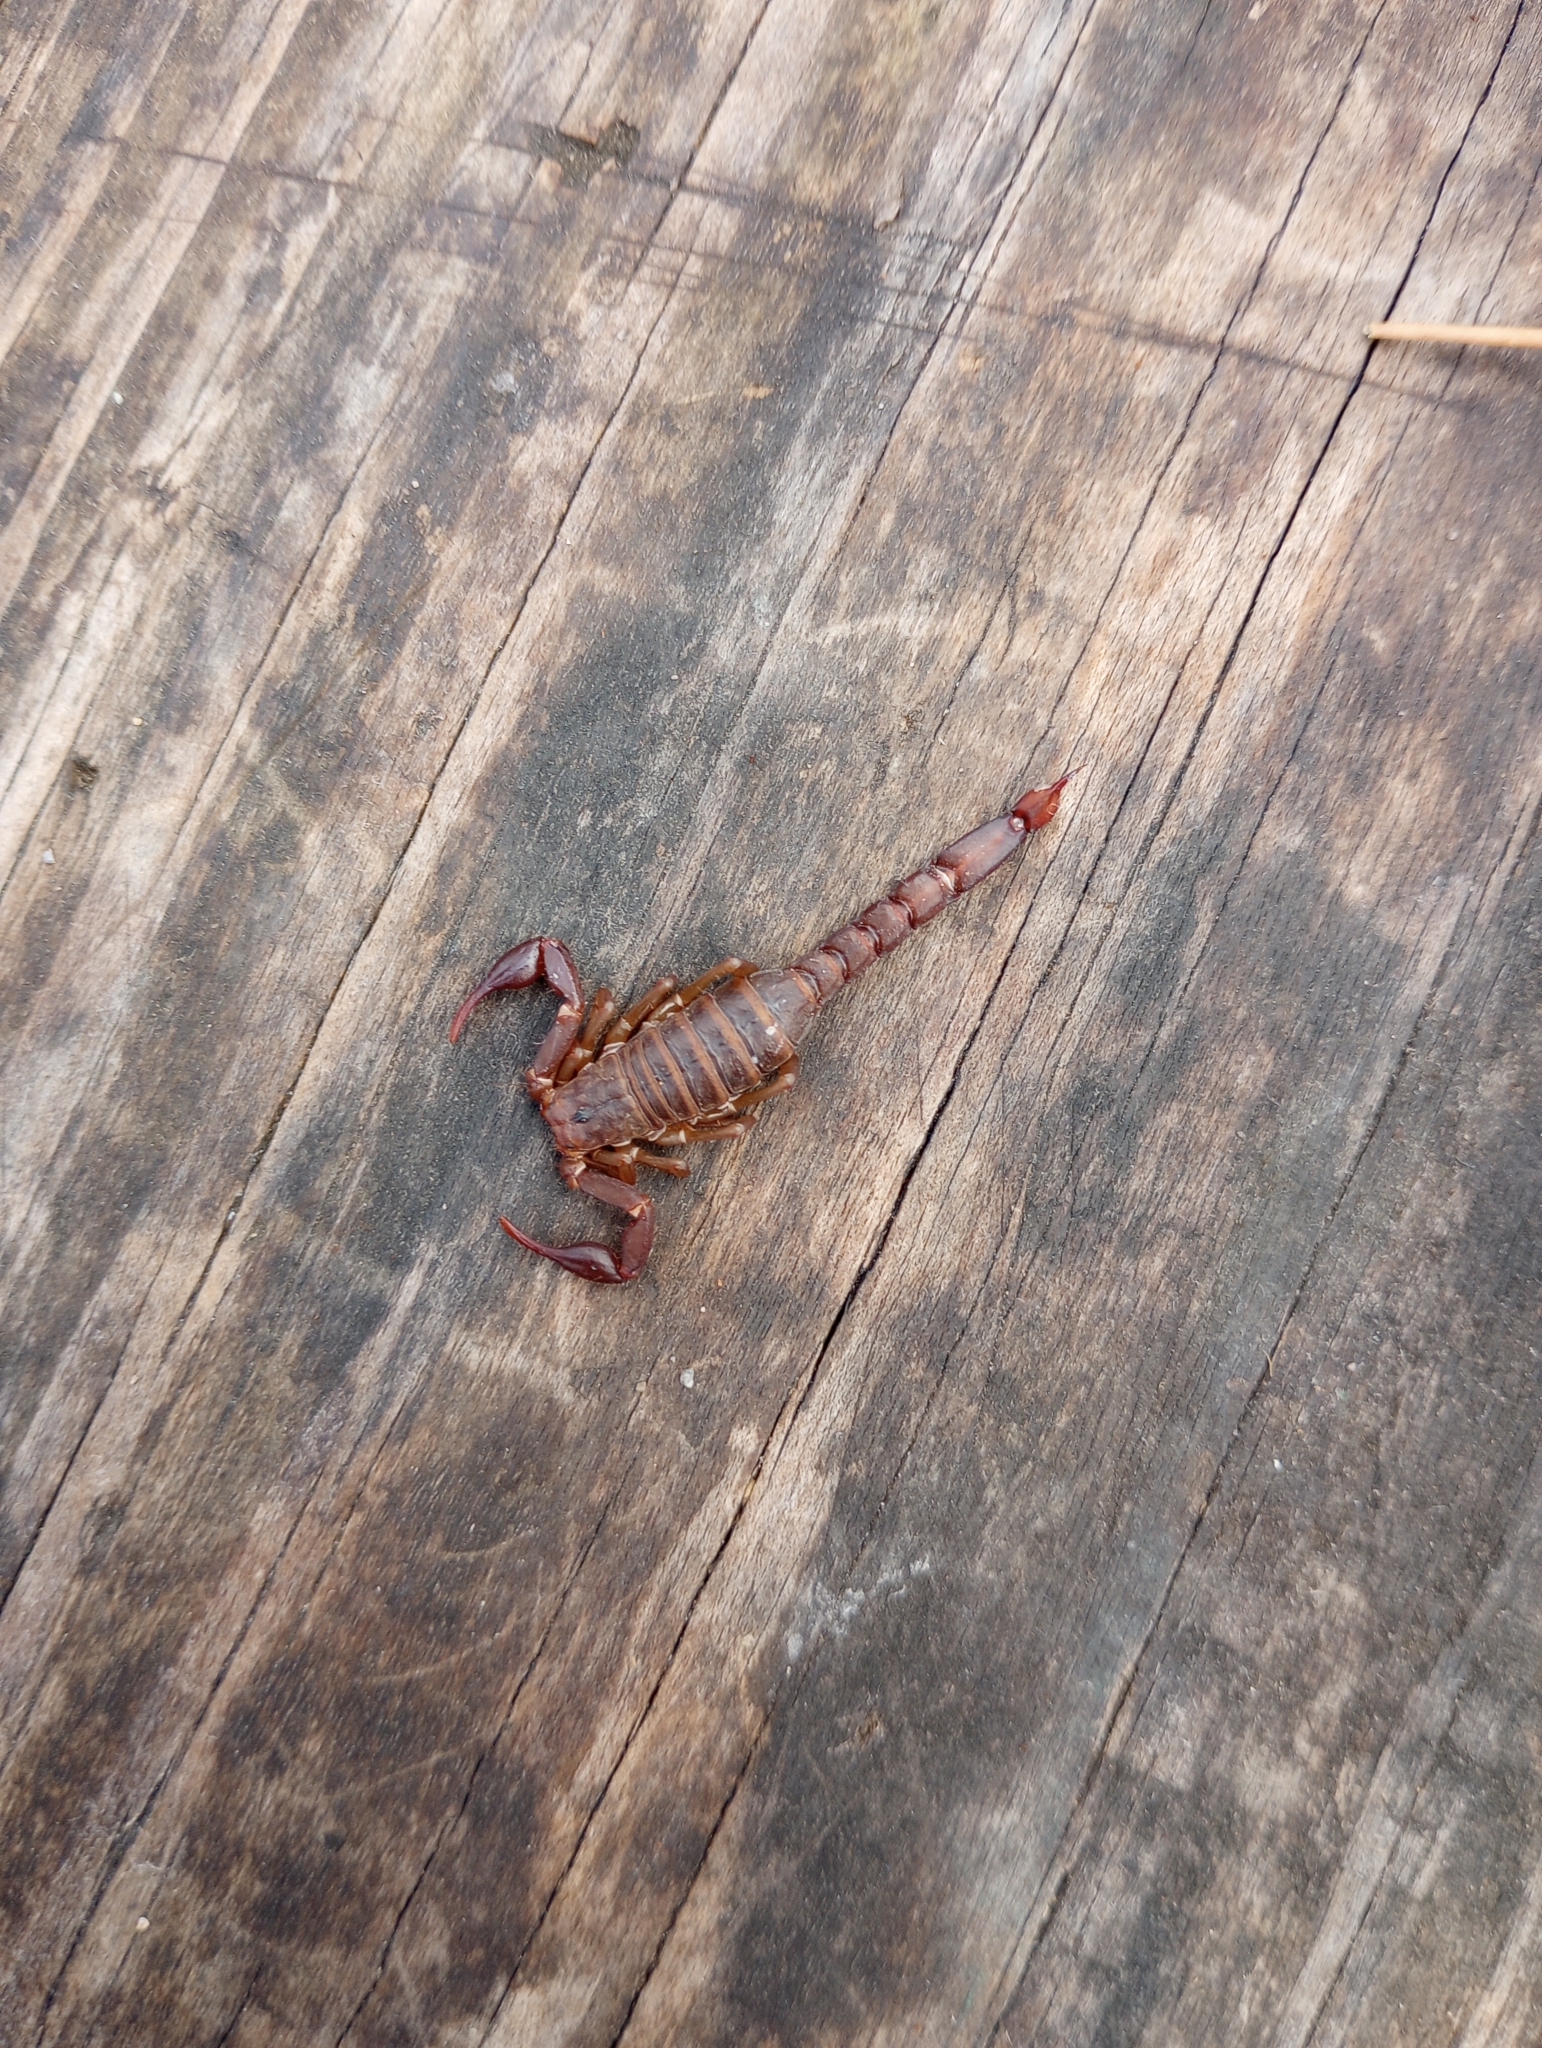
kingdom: Animalia
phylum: Arthropoda
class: Arachnida
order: Scorpiones
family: Vaejovidae
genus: Vaejovis
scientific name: Vaejovis carolinianus
